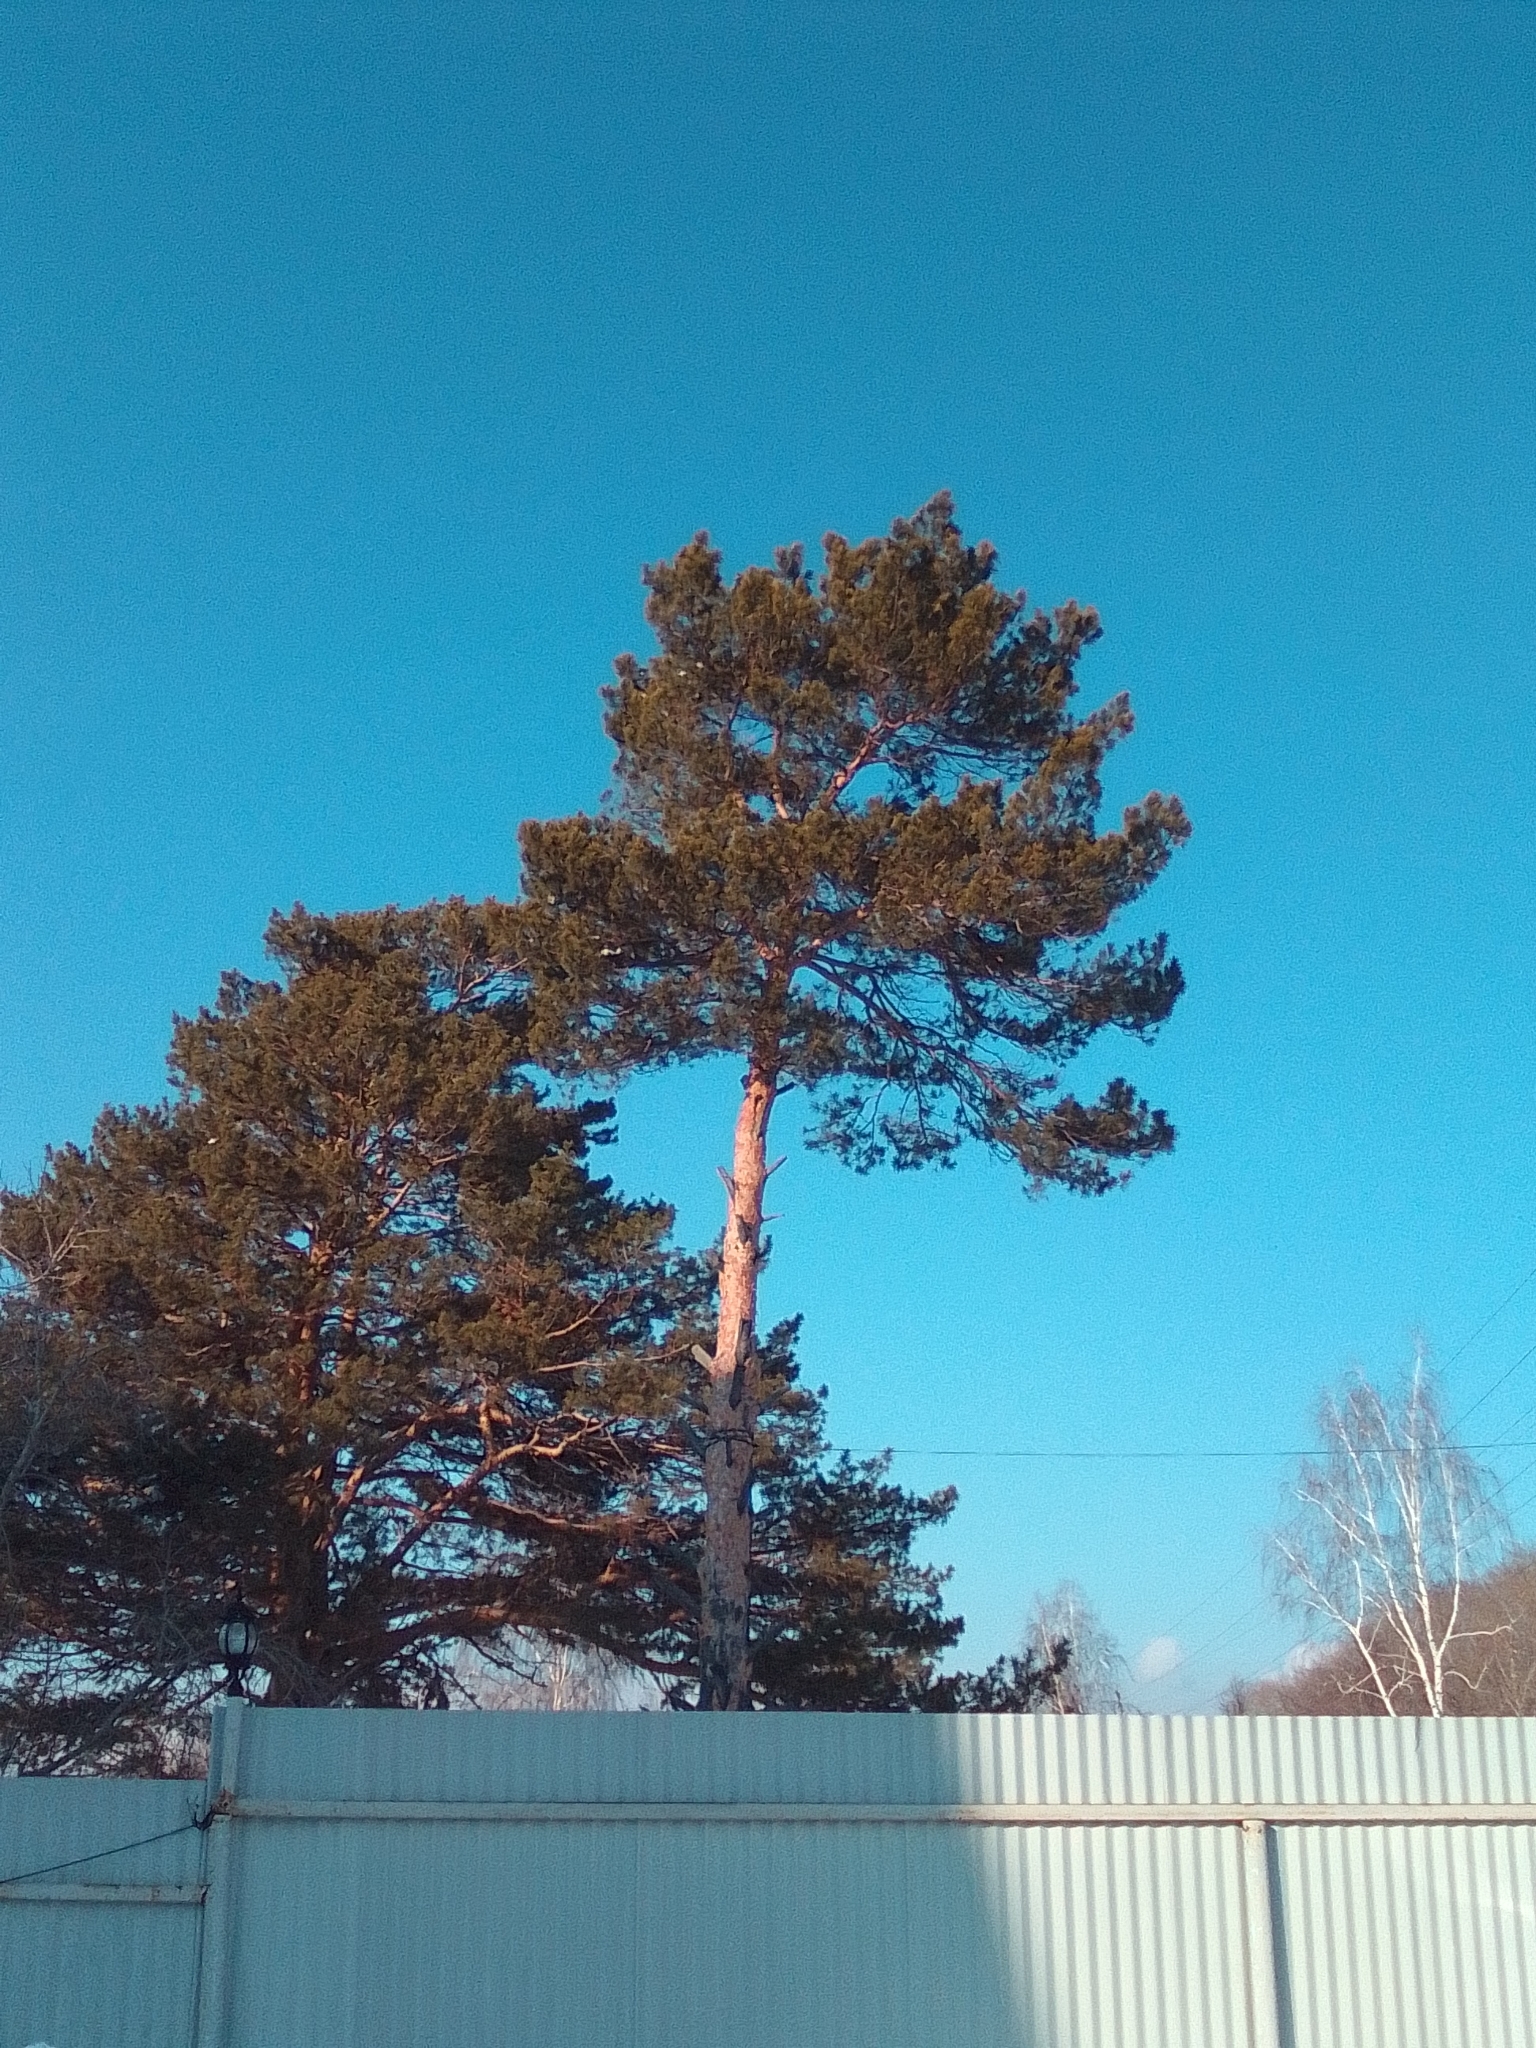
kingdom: Plantae
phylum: Tracheophyta
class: Pinopsida
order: Pinales
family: Pinaceae
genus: Pinus
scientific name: Pinus sylvestris
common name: Scots pine
